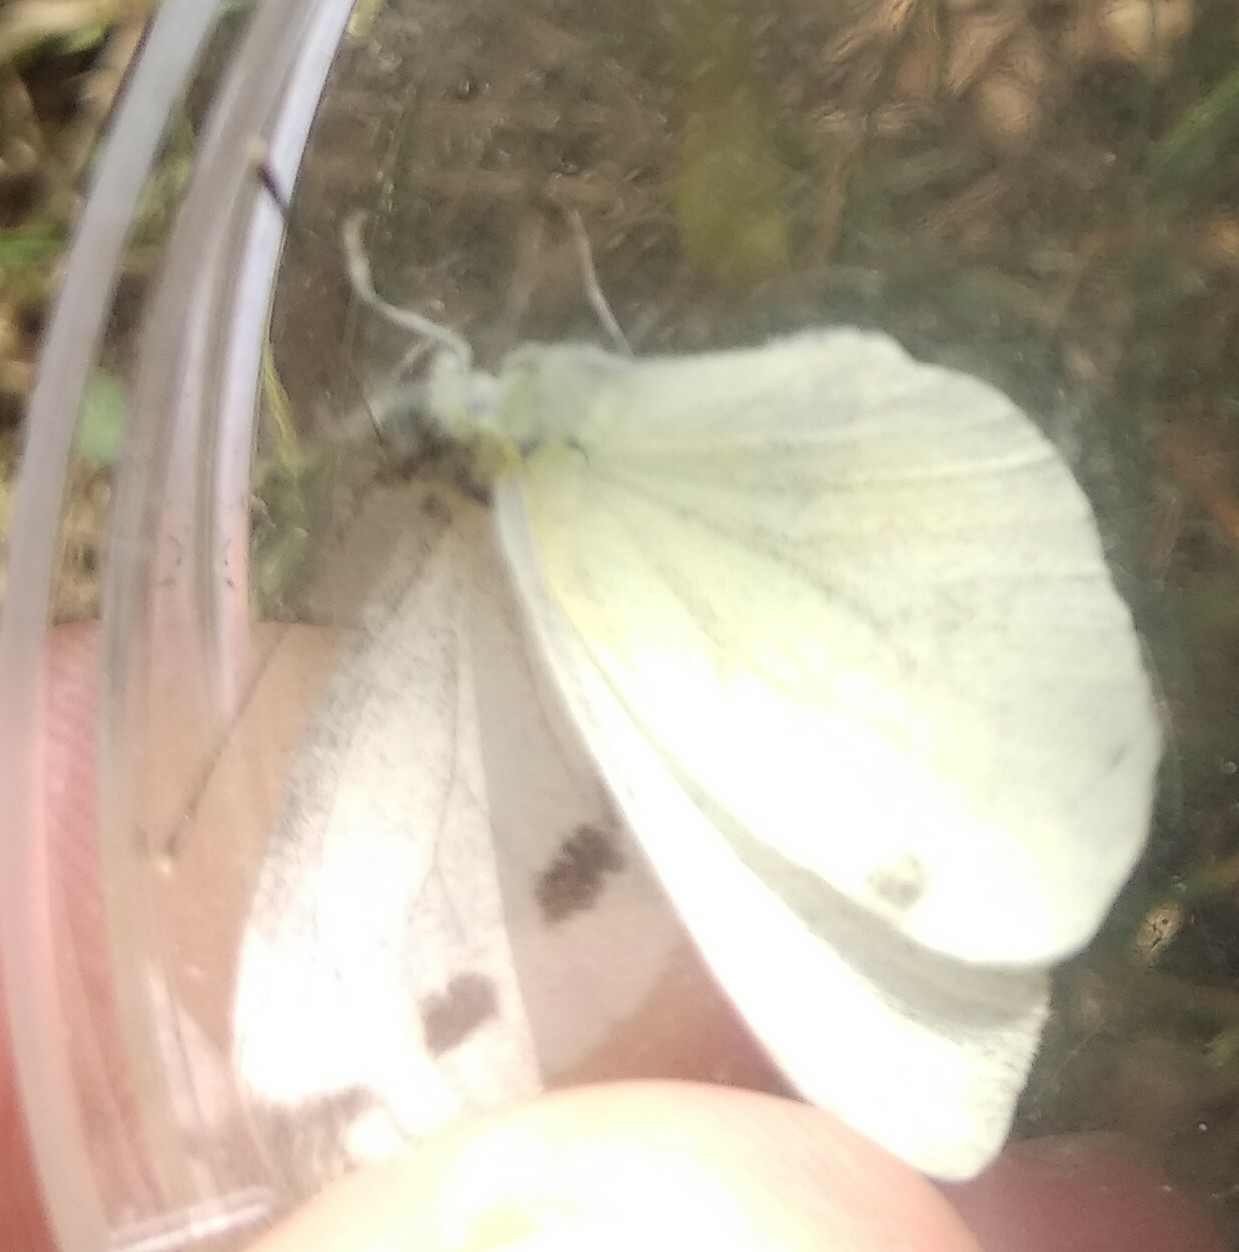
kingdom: Animalia
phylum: Arthropoda
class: Insecta
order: Lepidoptera
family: Pieridae
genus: Pieris
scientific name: Pieris napi
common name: Green-veined white
